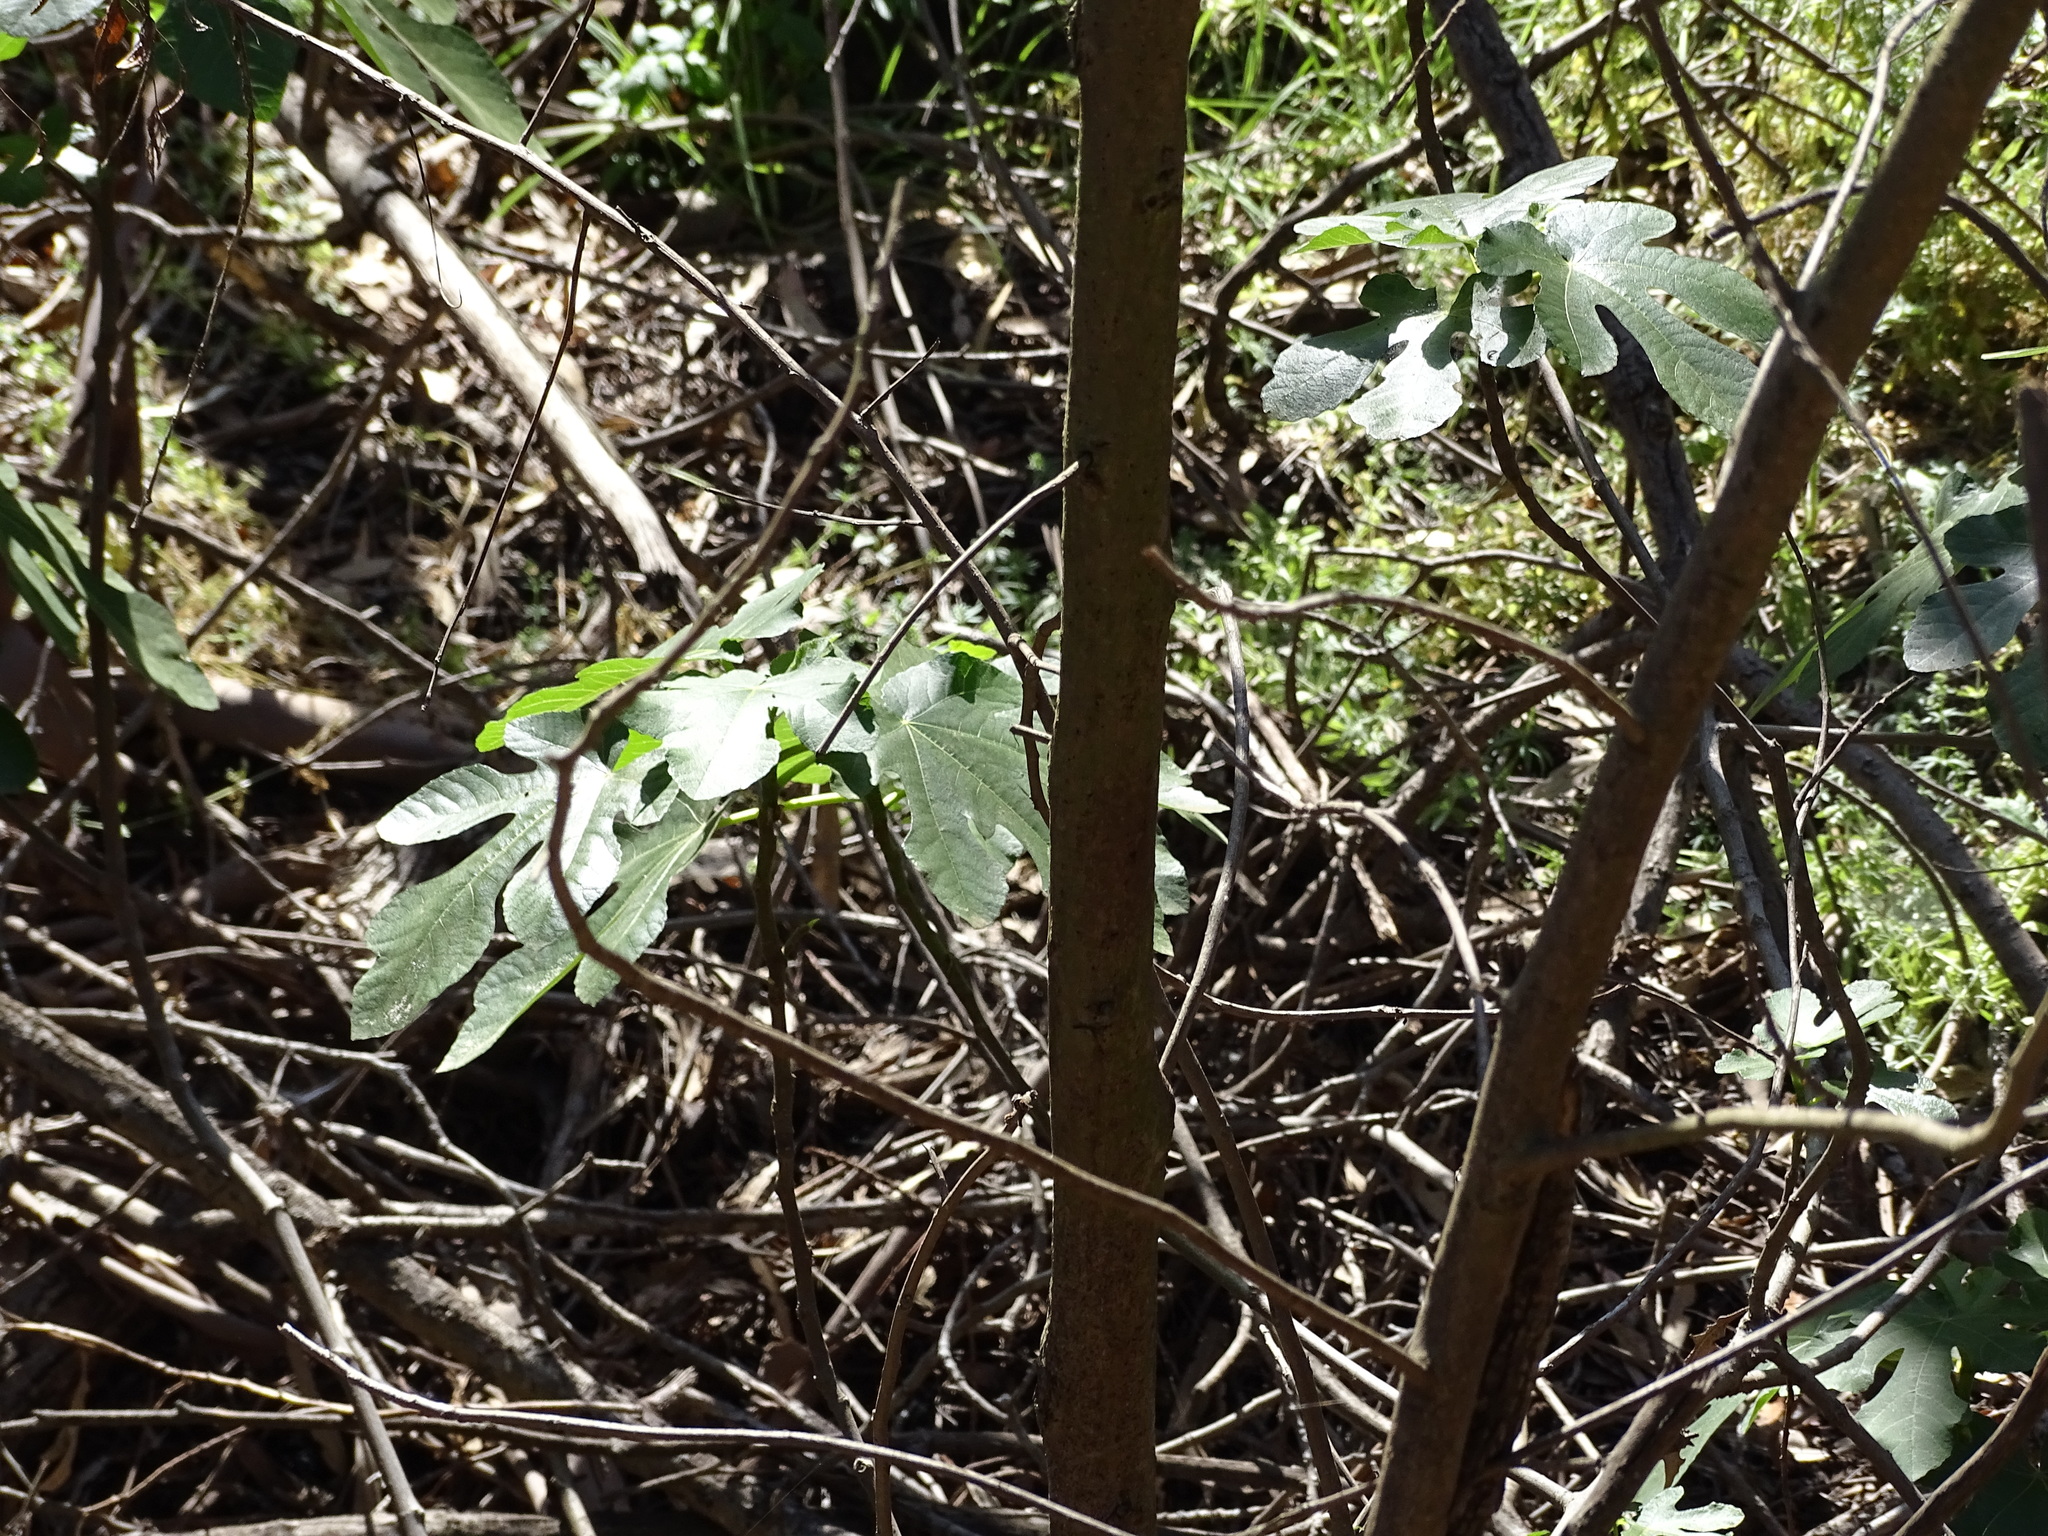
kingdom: Plantae
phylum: Tracheophyta
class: Magnoliopsida
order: Rosales
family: Moraceae
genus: Ficus
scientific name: Ficus carica
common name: Fig
